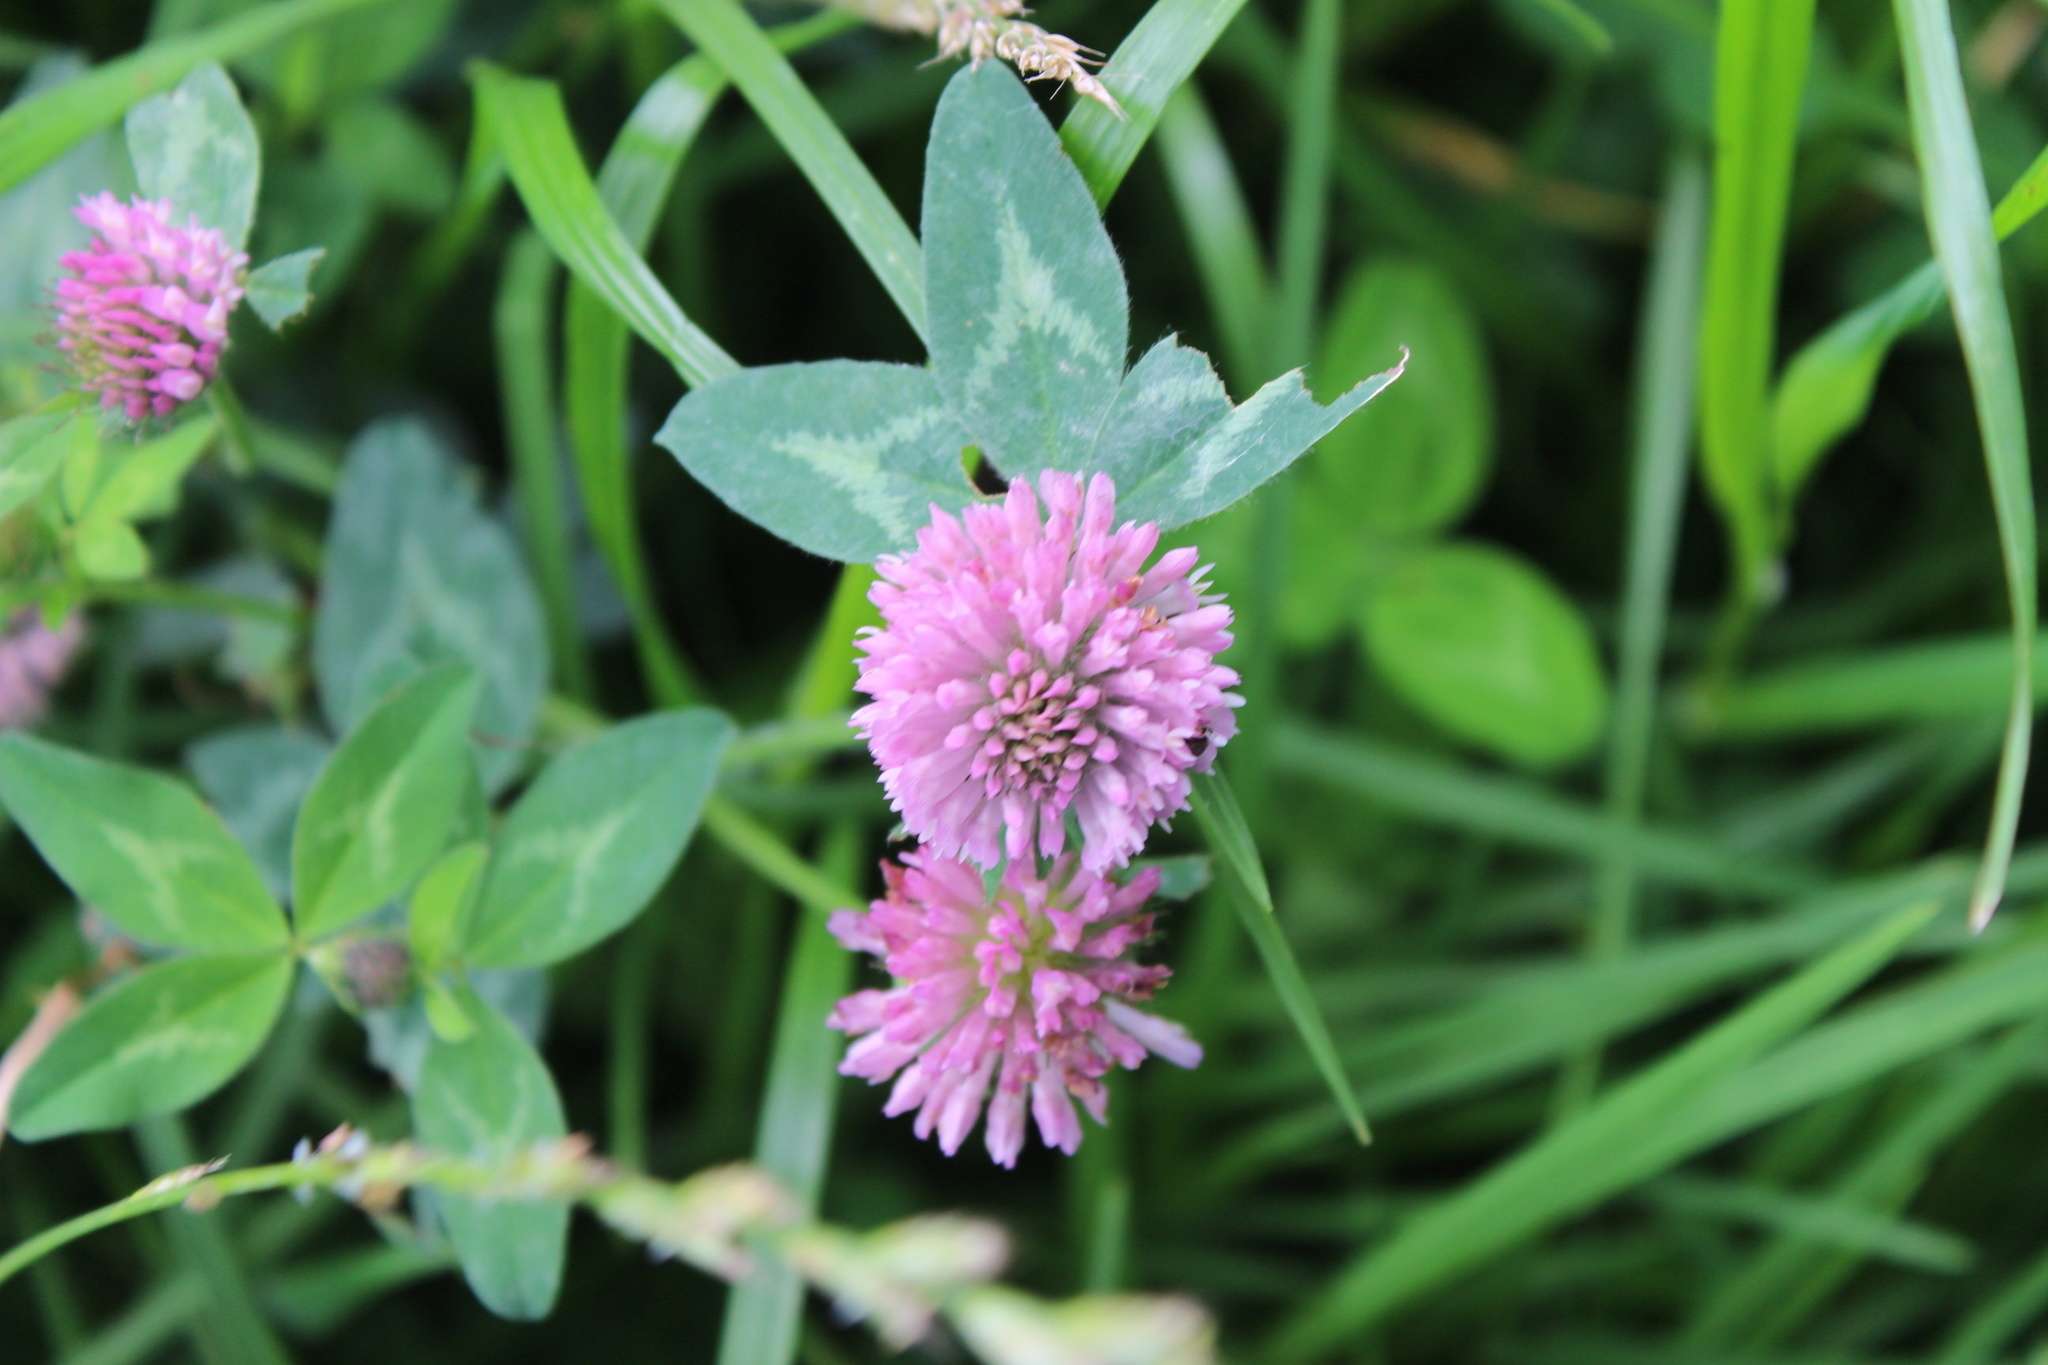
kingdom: Plantae
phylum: Tracheophyta
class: Magnoliopsida
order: Fabales
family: Fabaceae
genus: Trifolium
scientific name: Trifolium pratense
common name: Red clover
